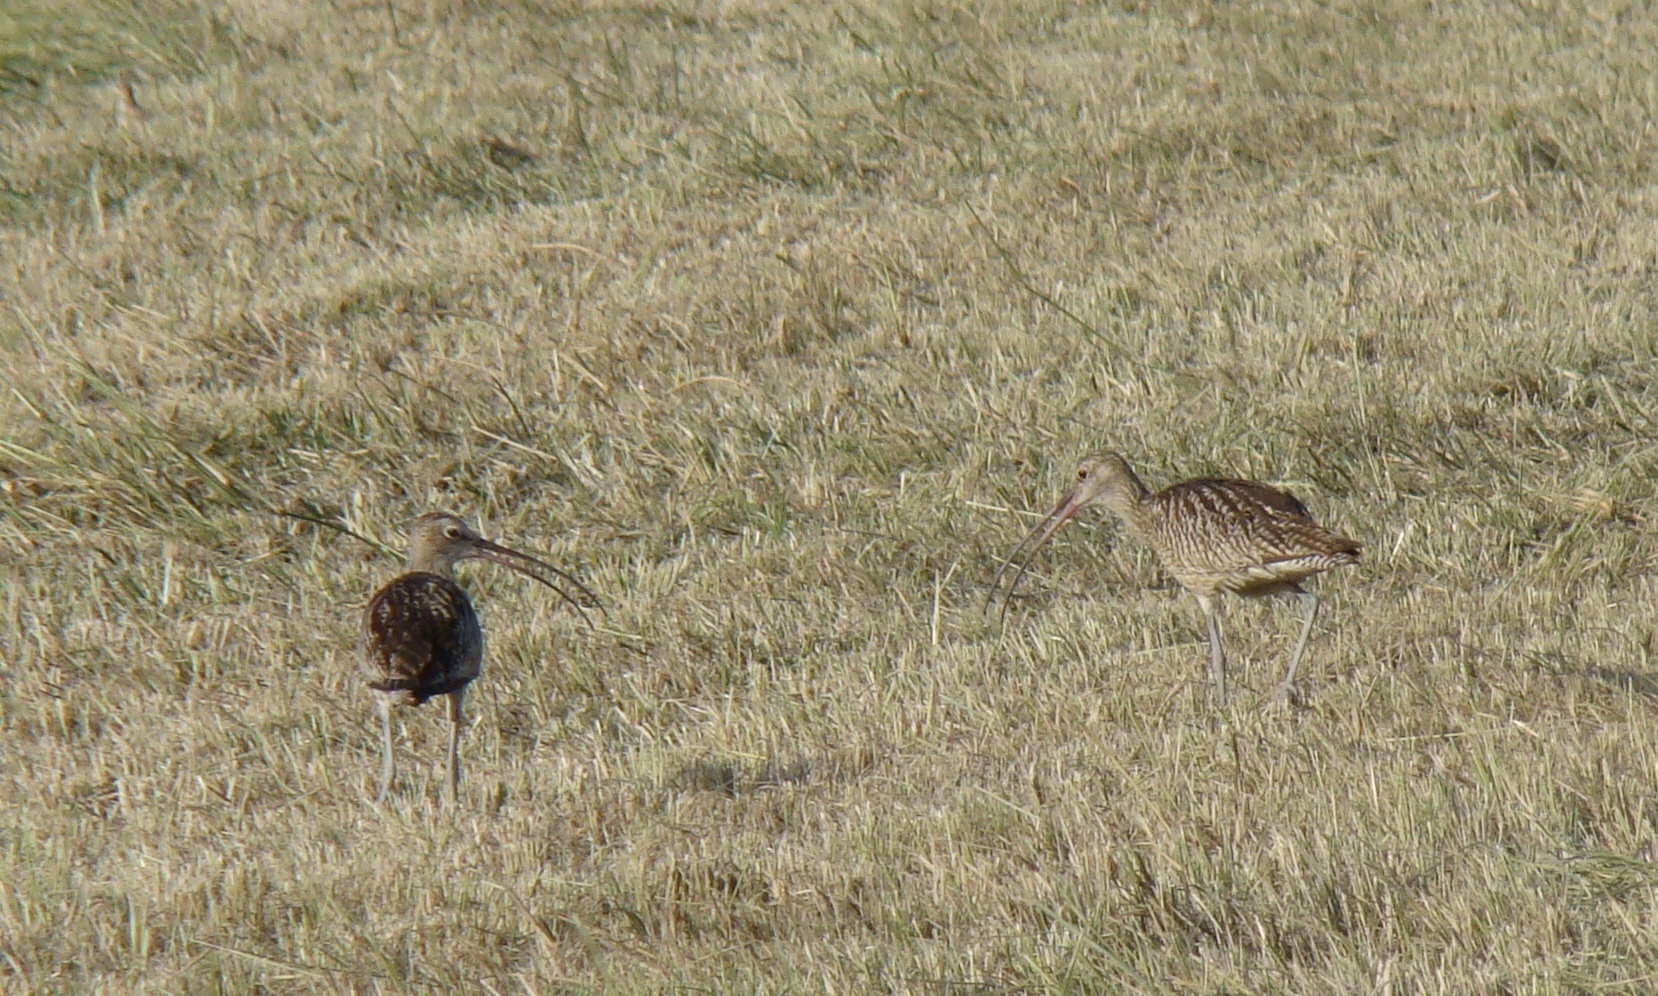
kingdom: Animalia
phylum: Chordata
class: Aves
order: Charadriiformes
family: Scolopacidae
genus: Numenius
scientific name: Numenius arquata
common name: Eurasian curlew
